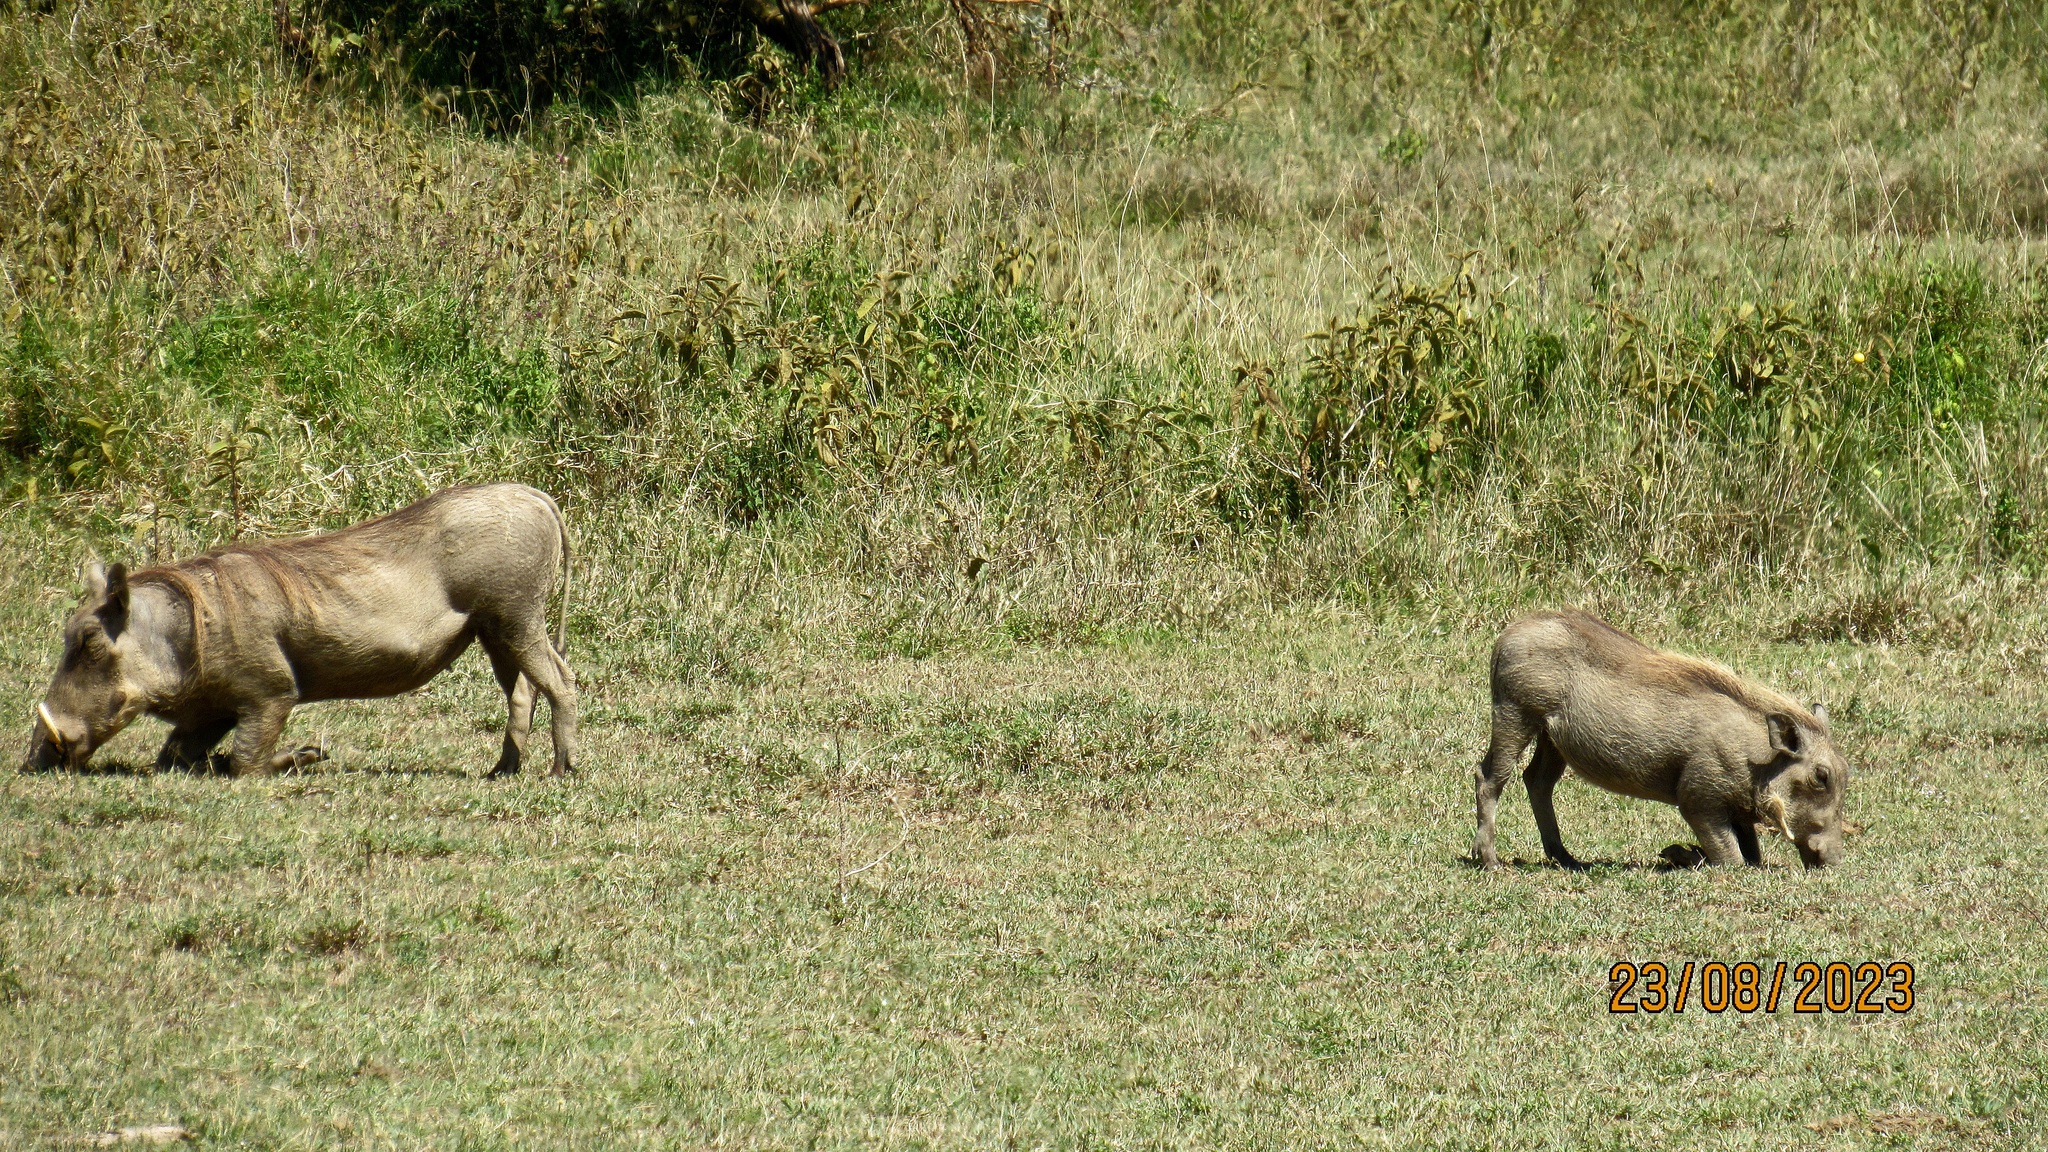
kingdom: Animalia
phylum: Chordata
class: Mammalia
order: Artiodactyla
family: Suidae
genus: Phacochoerus
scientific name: Phacochoerus africanus
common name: Common warthog
